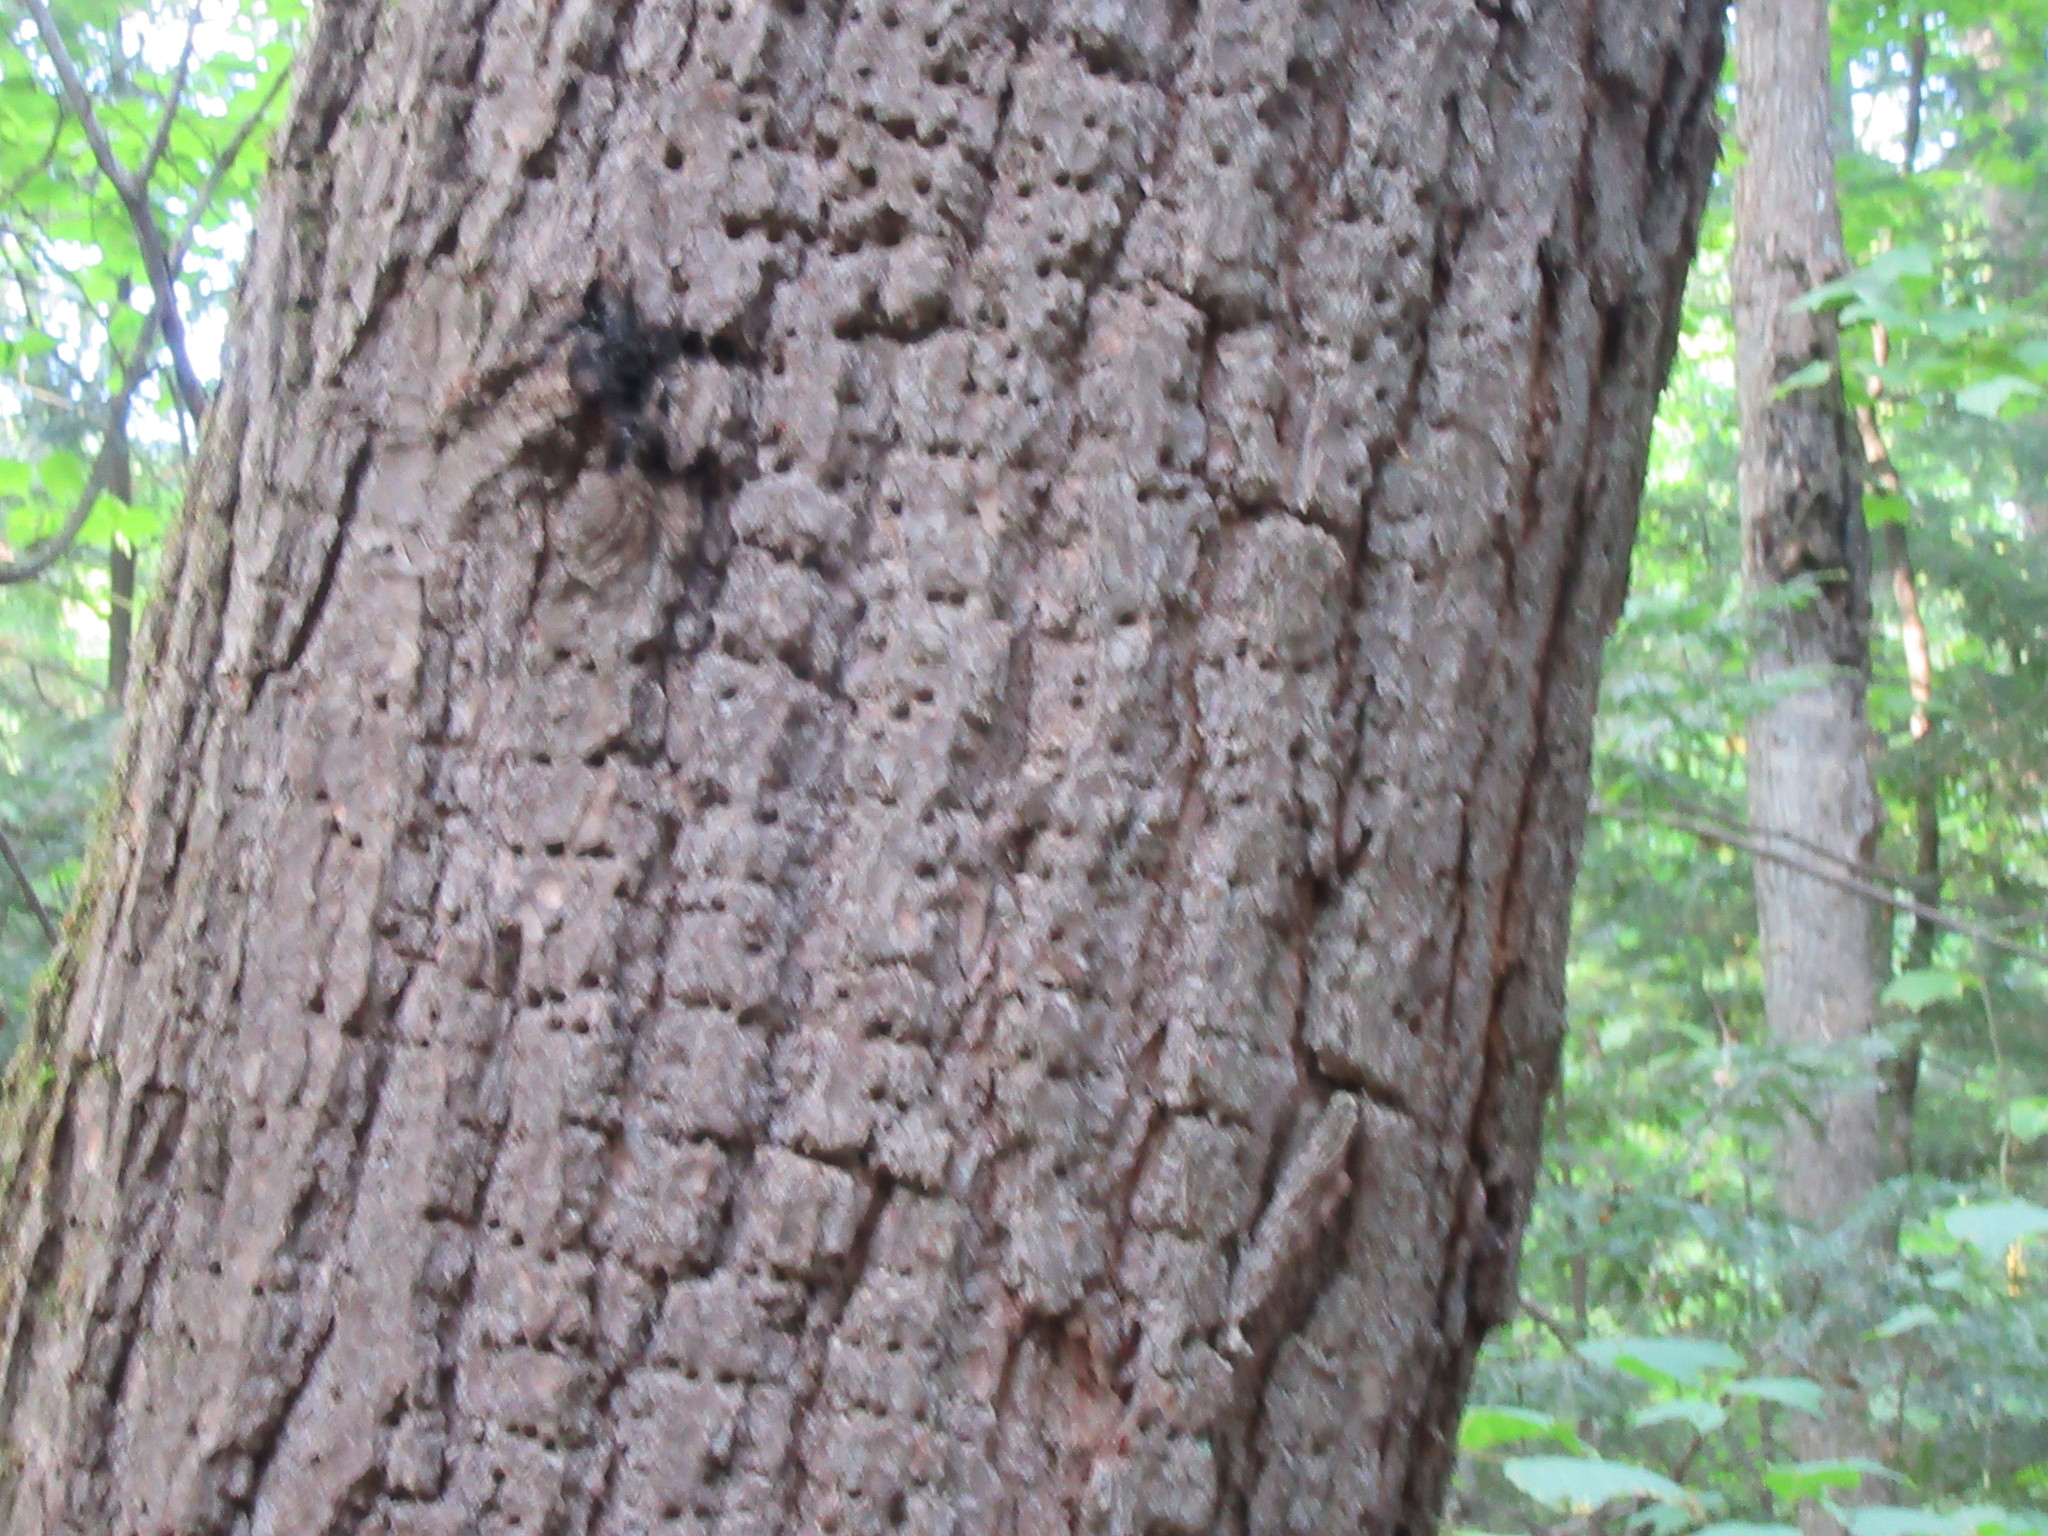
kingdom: Animalia
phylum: Chordata
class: Aves
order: Piciformes
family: Picidae
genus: Sphyrapicus
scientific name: Sphyrapicus varius
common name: Yellow-bellied sapsucker
